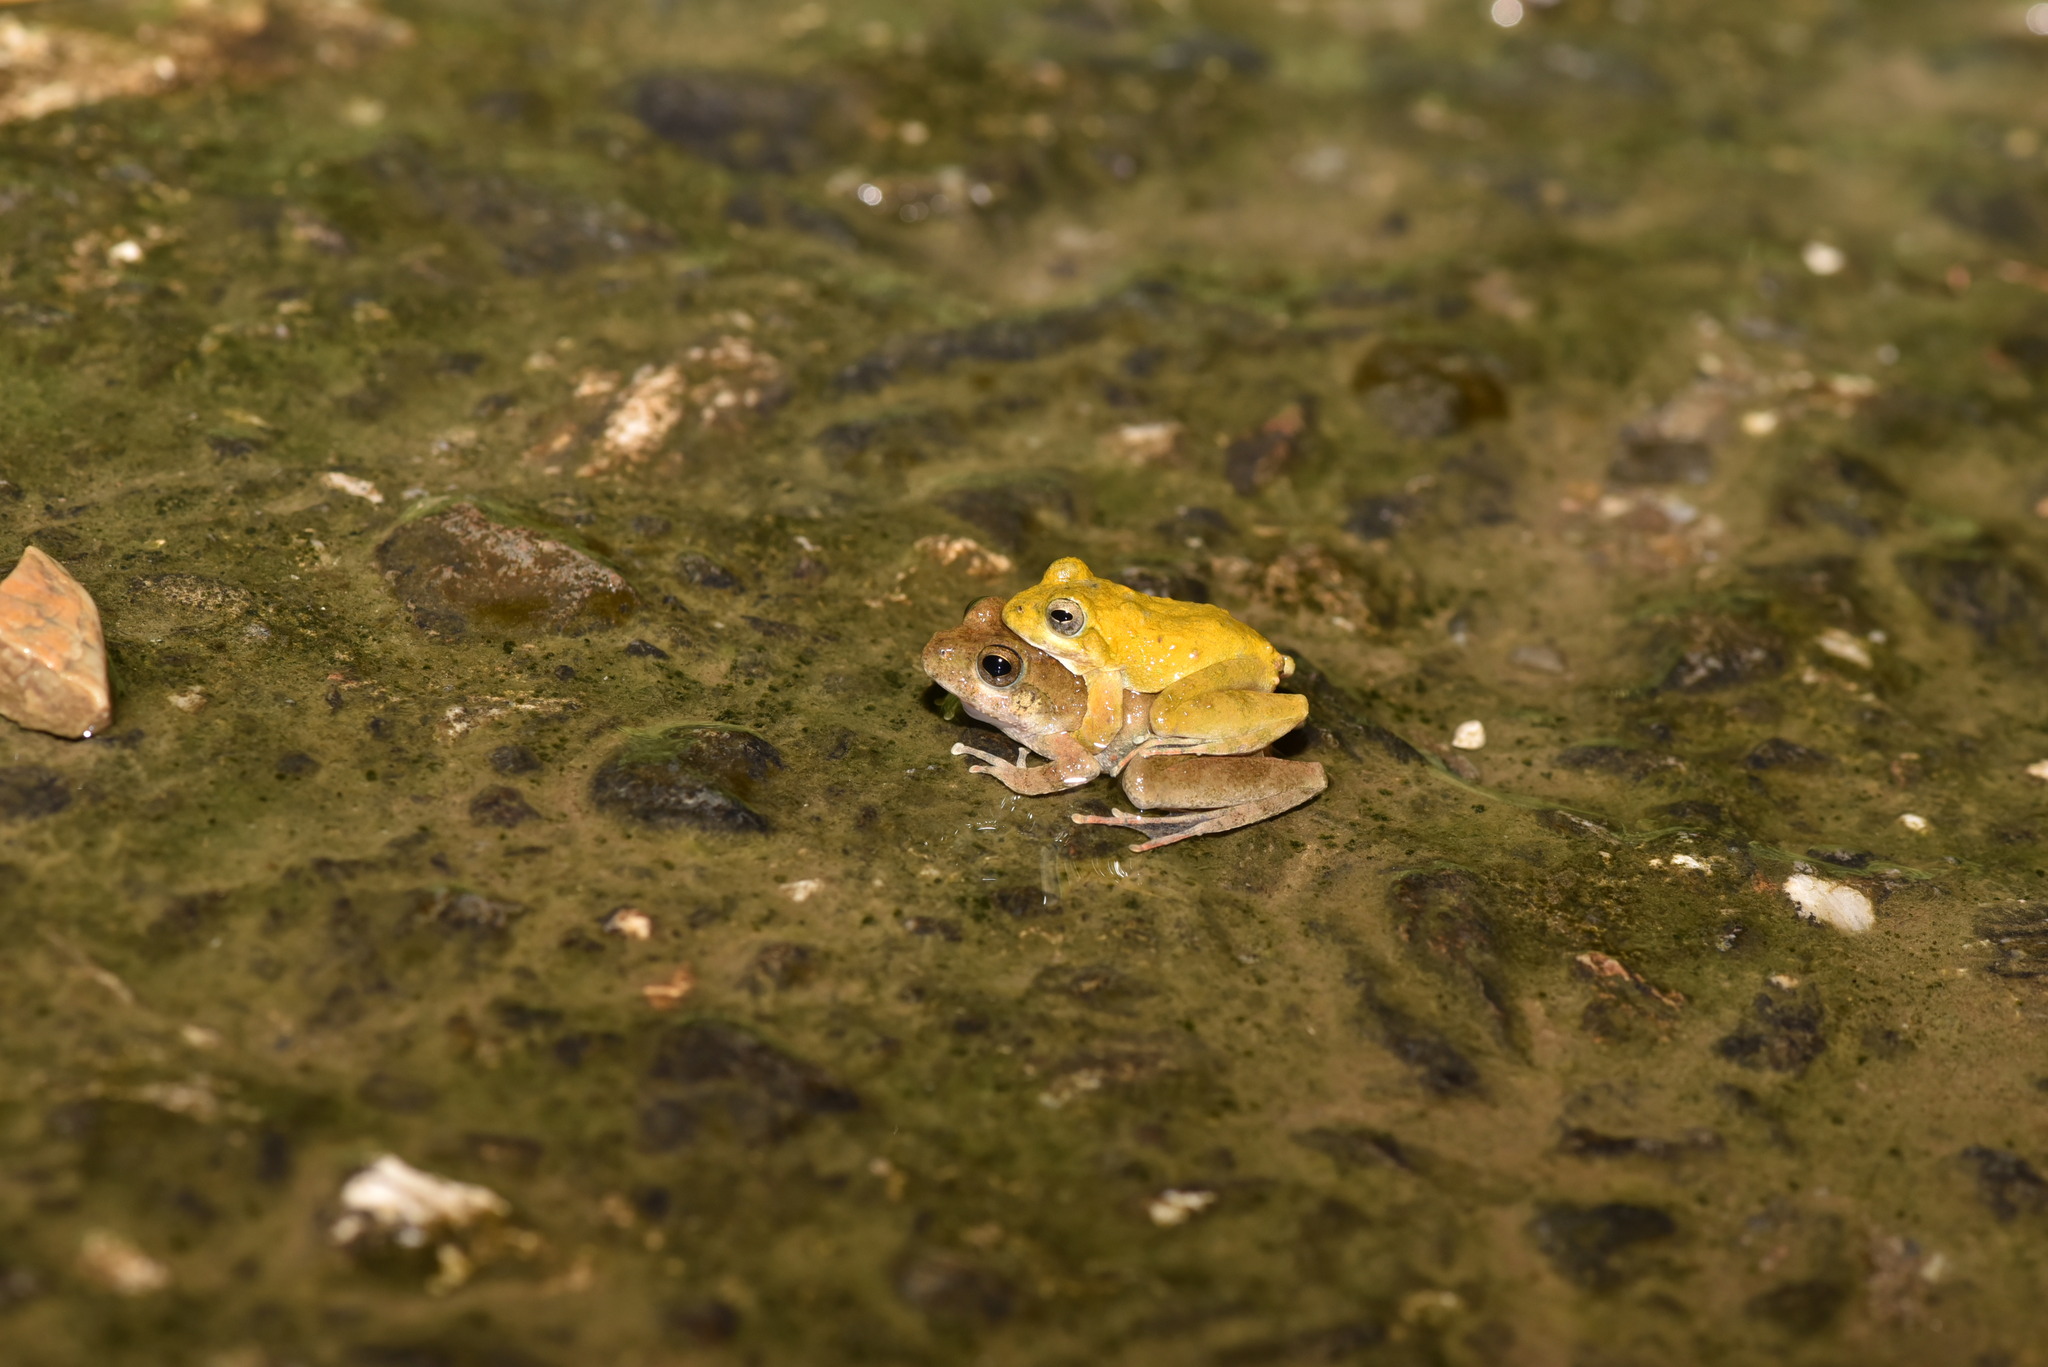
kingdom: Animalia
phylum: Chordata
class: Amphibia
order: Anura
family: Rhacophoridae
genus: Buergeria
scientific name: Buergeria otai
